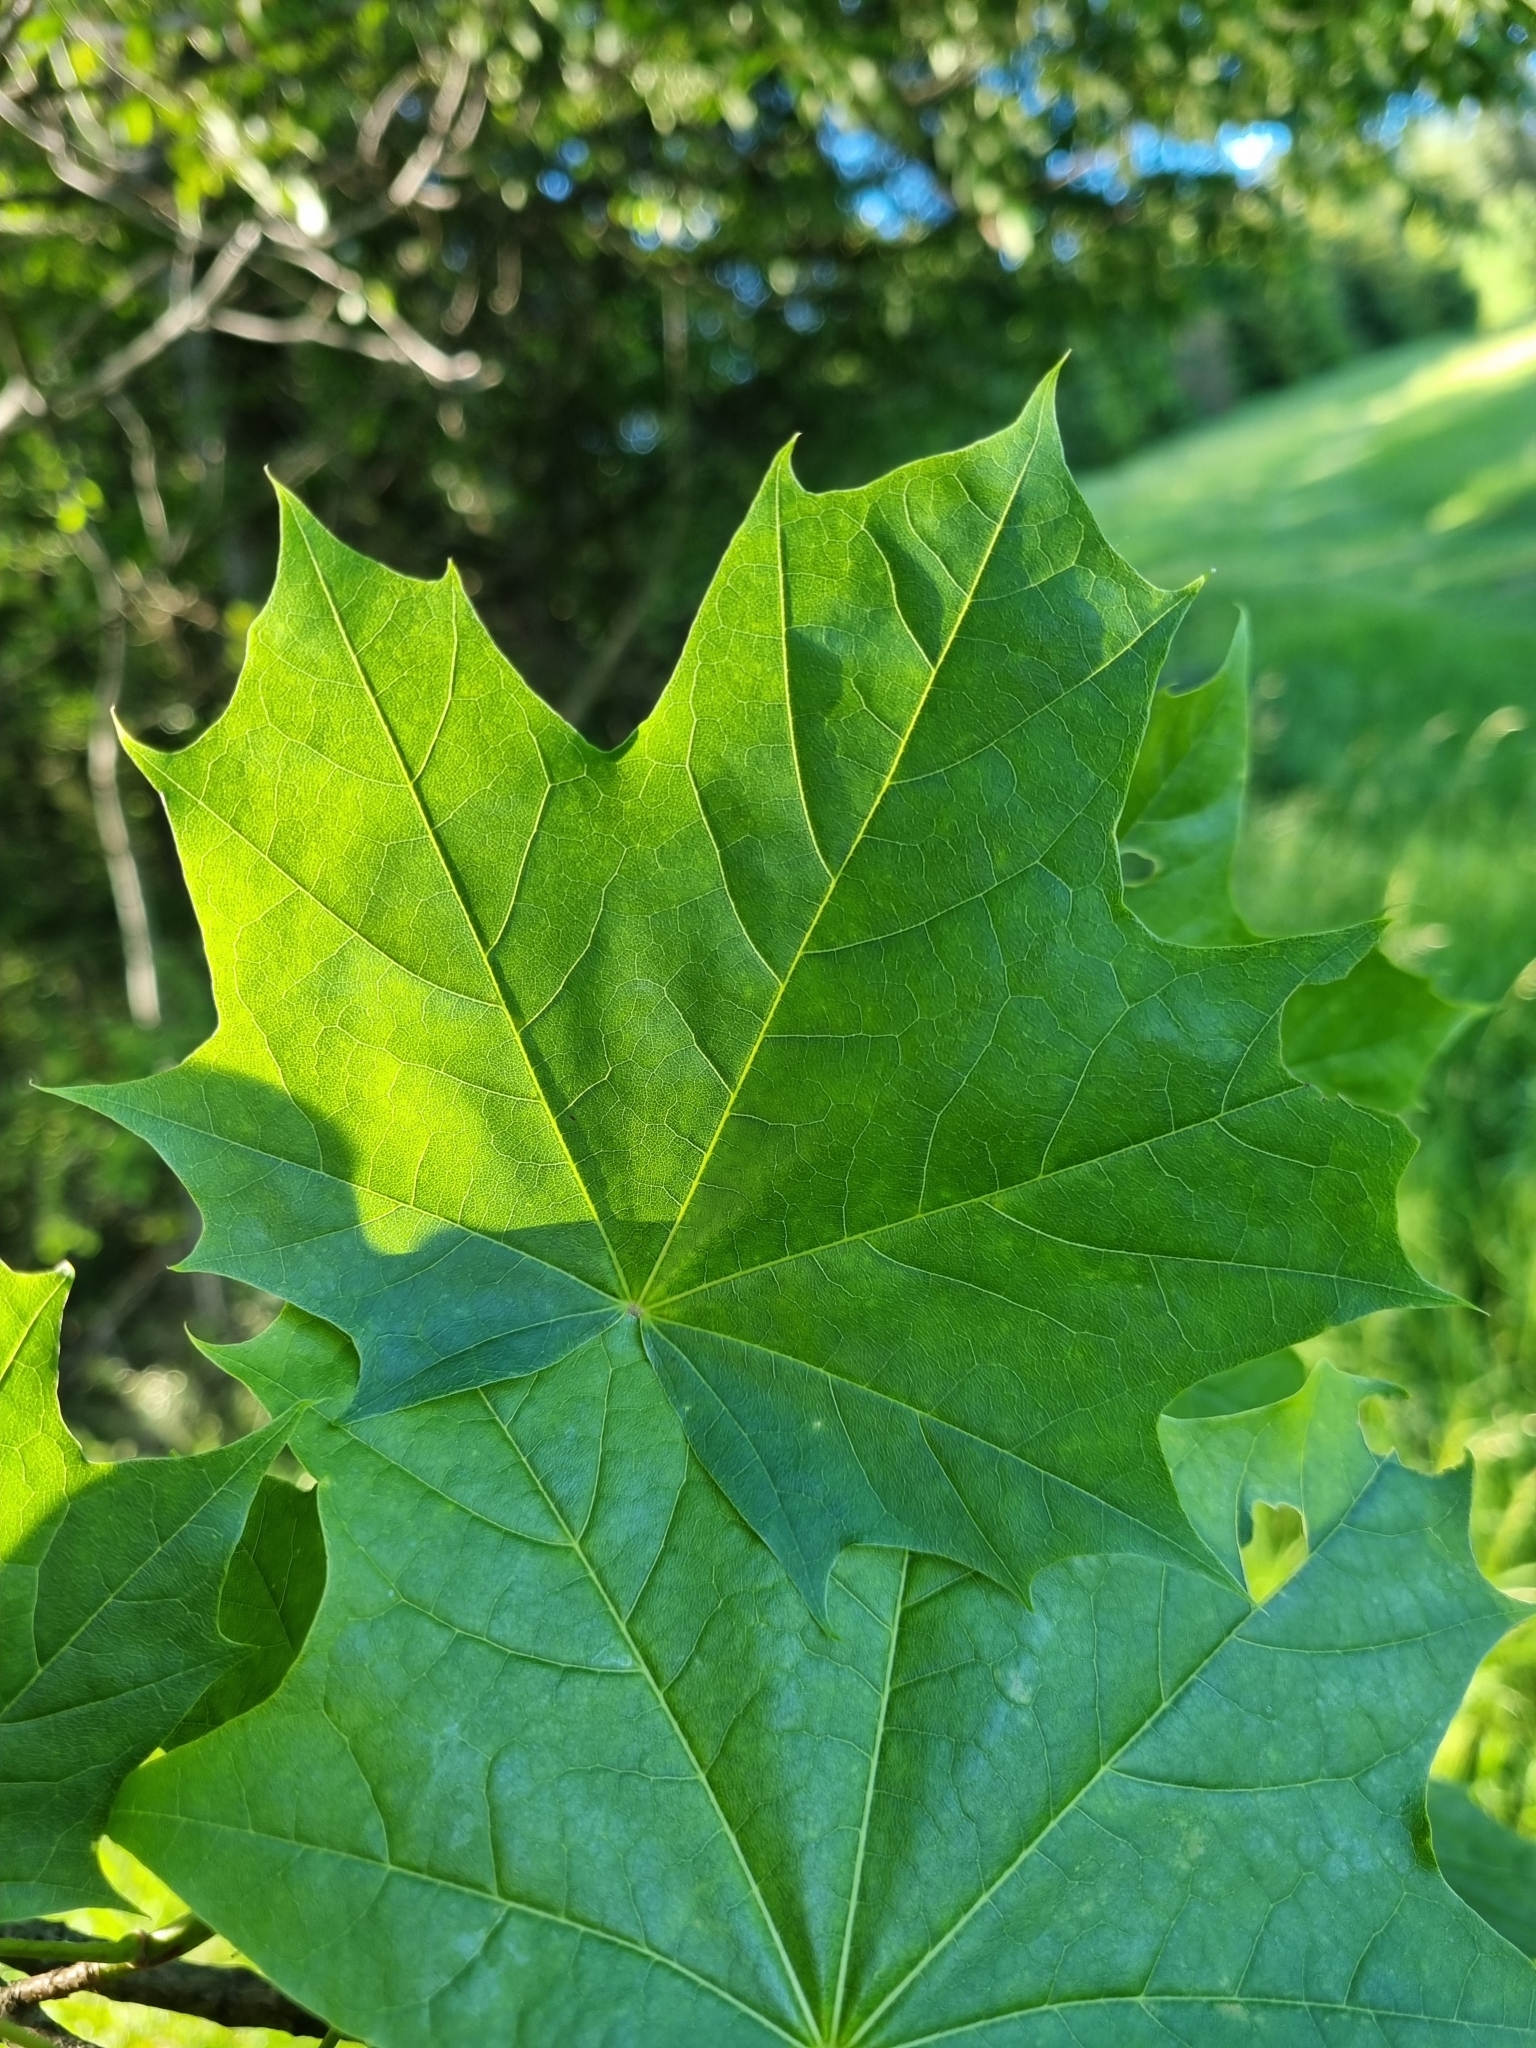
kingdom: Plantae
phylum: Tracheophyta
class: Magnoliopsida
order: Sapindales
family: Sapindaceae
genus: Acer
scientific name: Acer platanoides
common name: Norway maple
